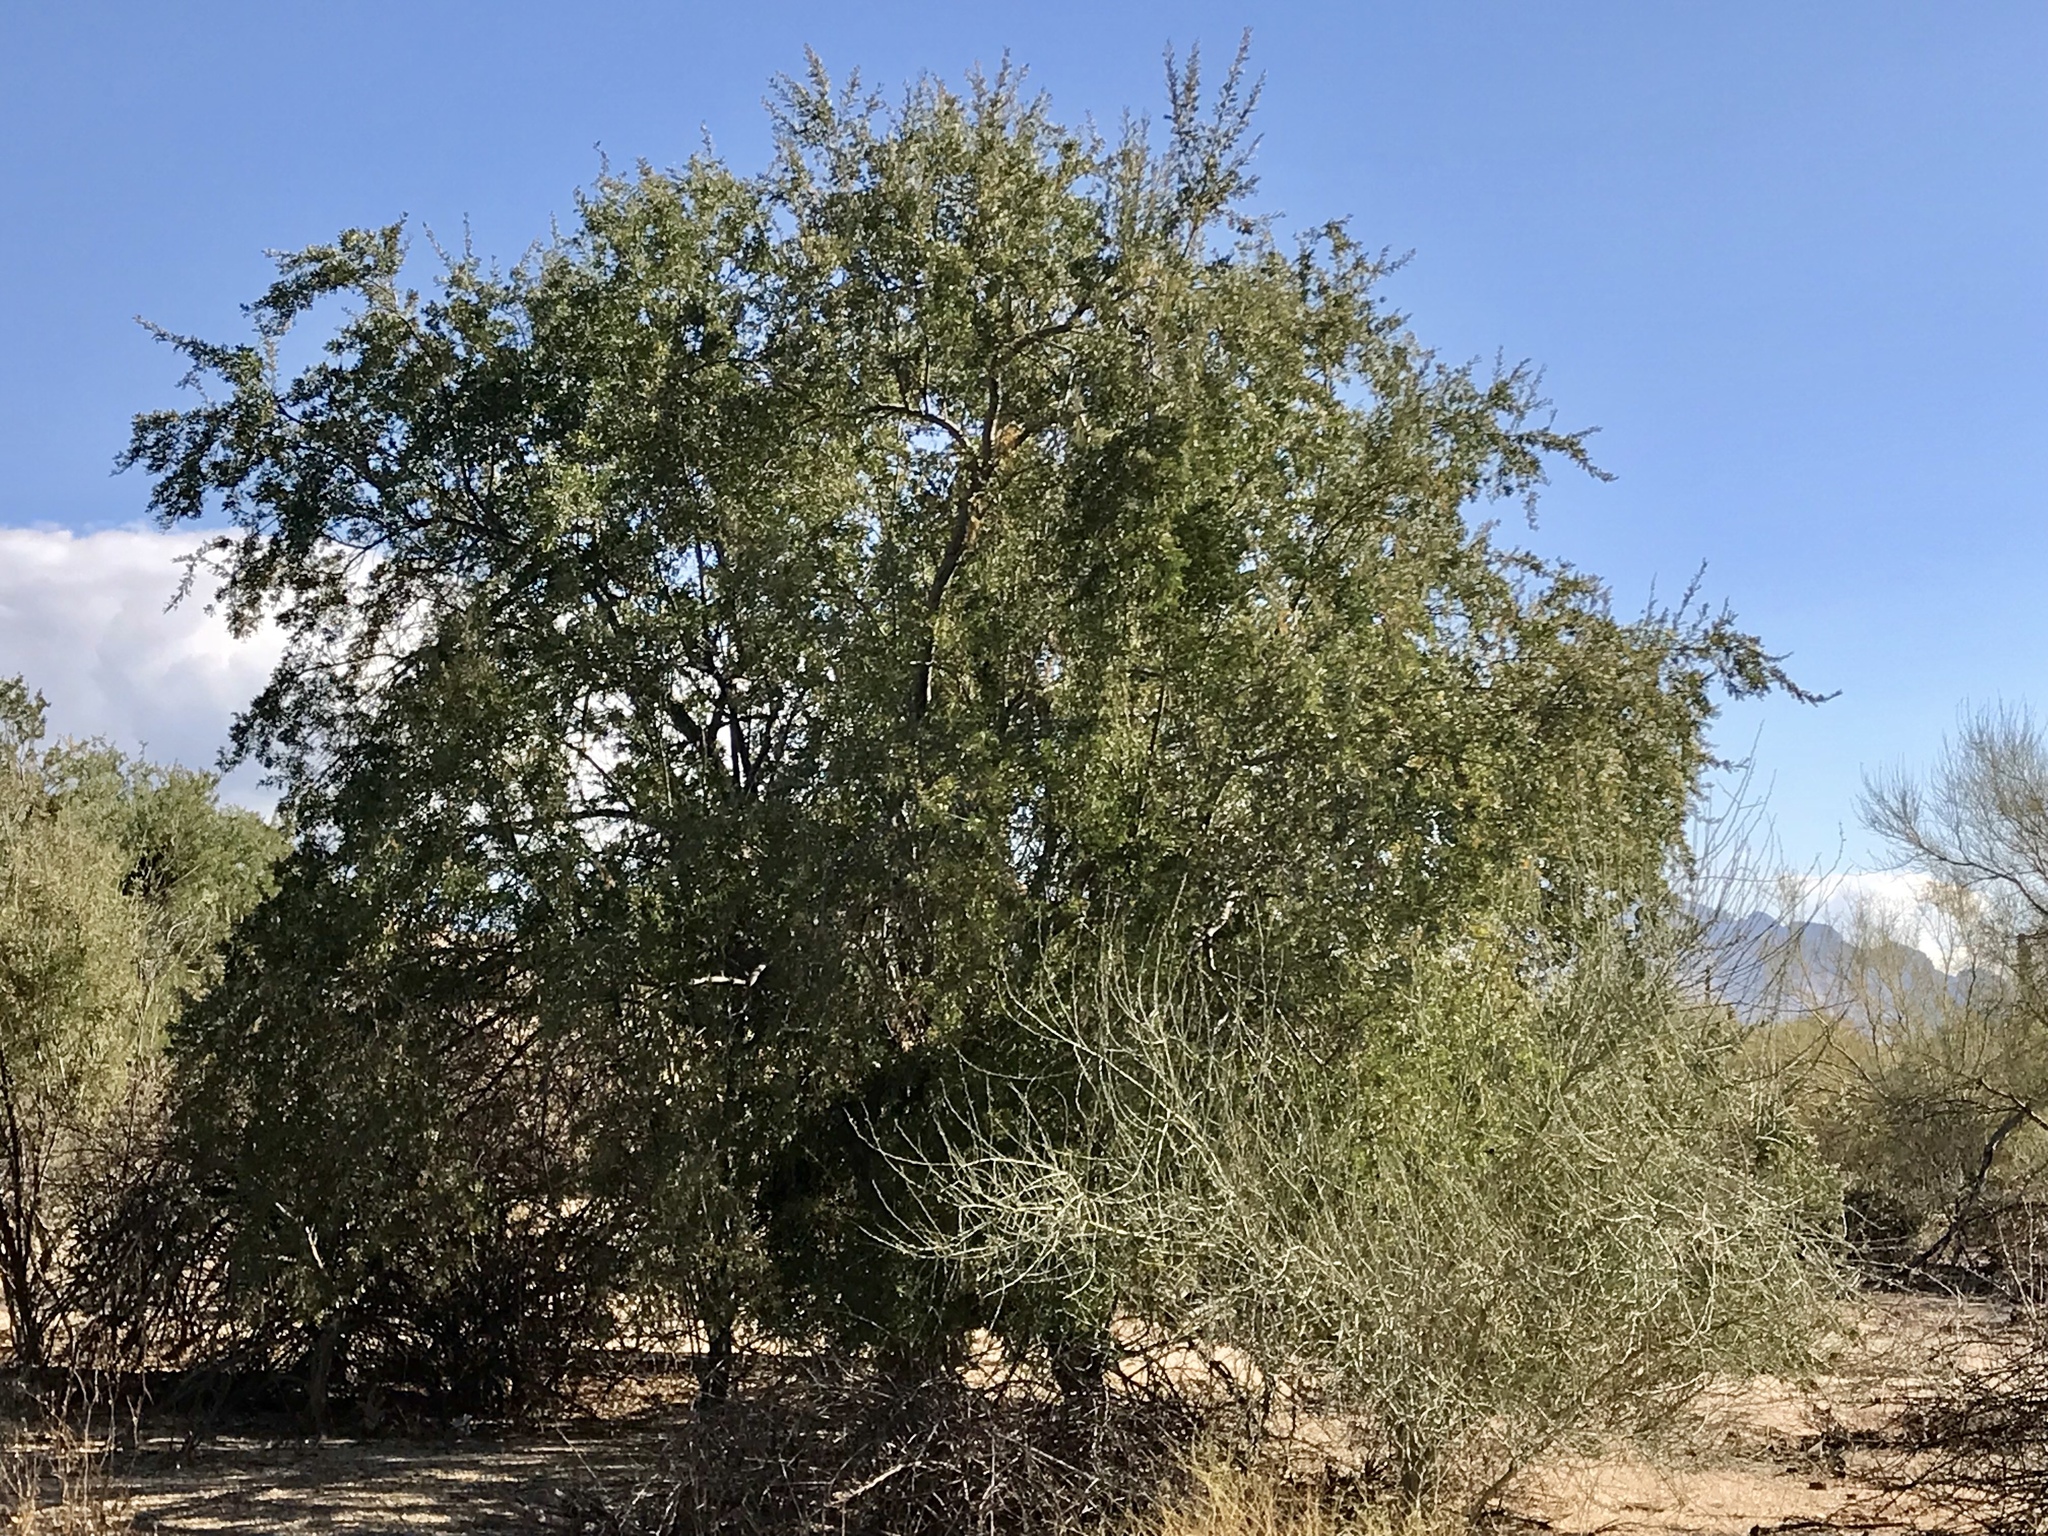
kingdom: Plantae
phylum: Tracheophyta
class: Magnoliopsida
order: Fabales
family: Fabaceae
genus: Olneya
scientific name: Olneya tesota
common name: Desert ironwood
